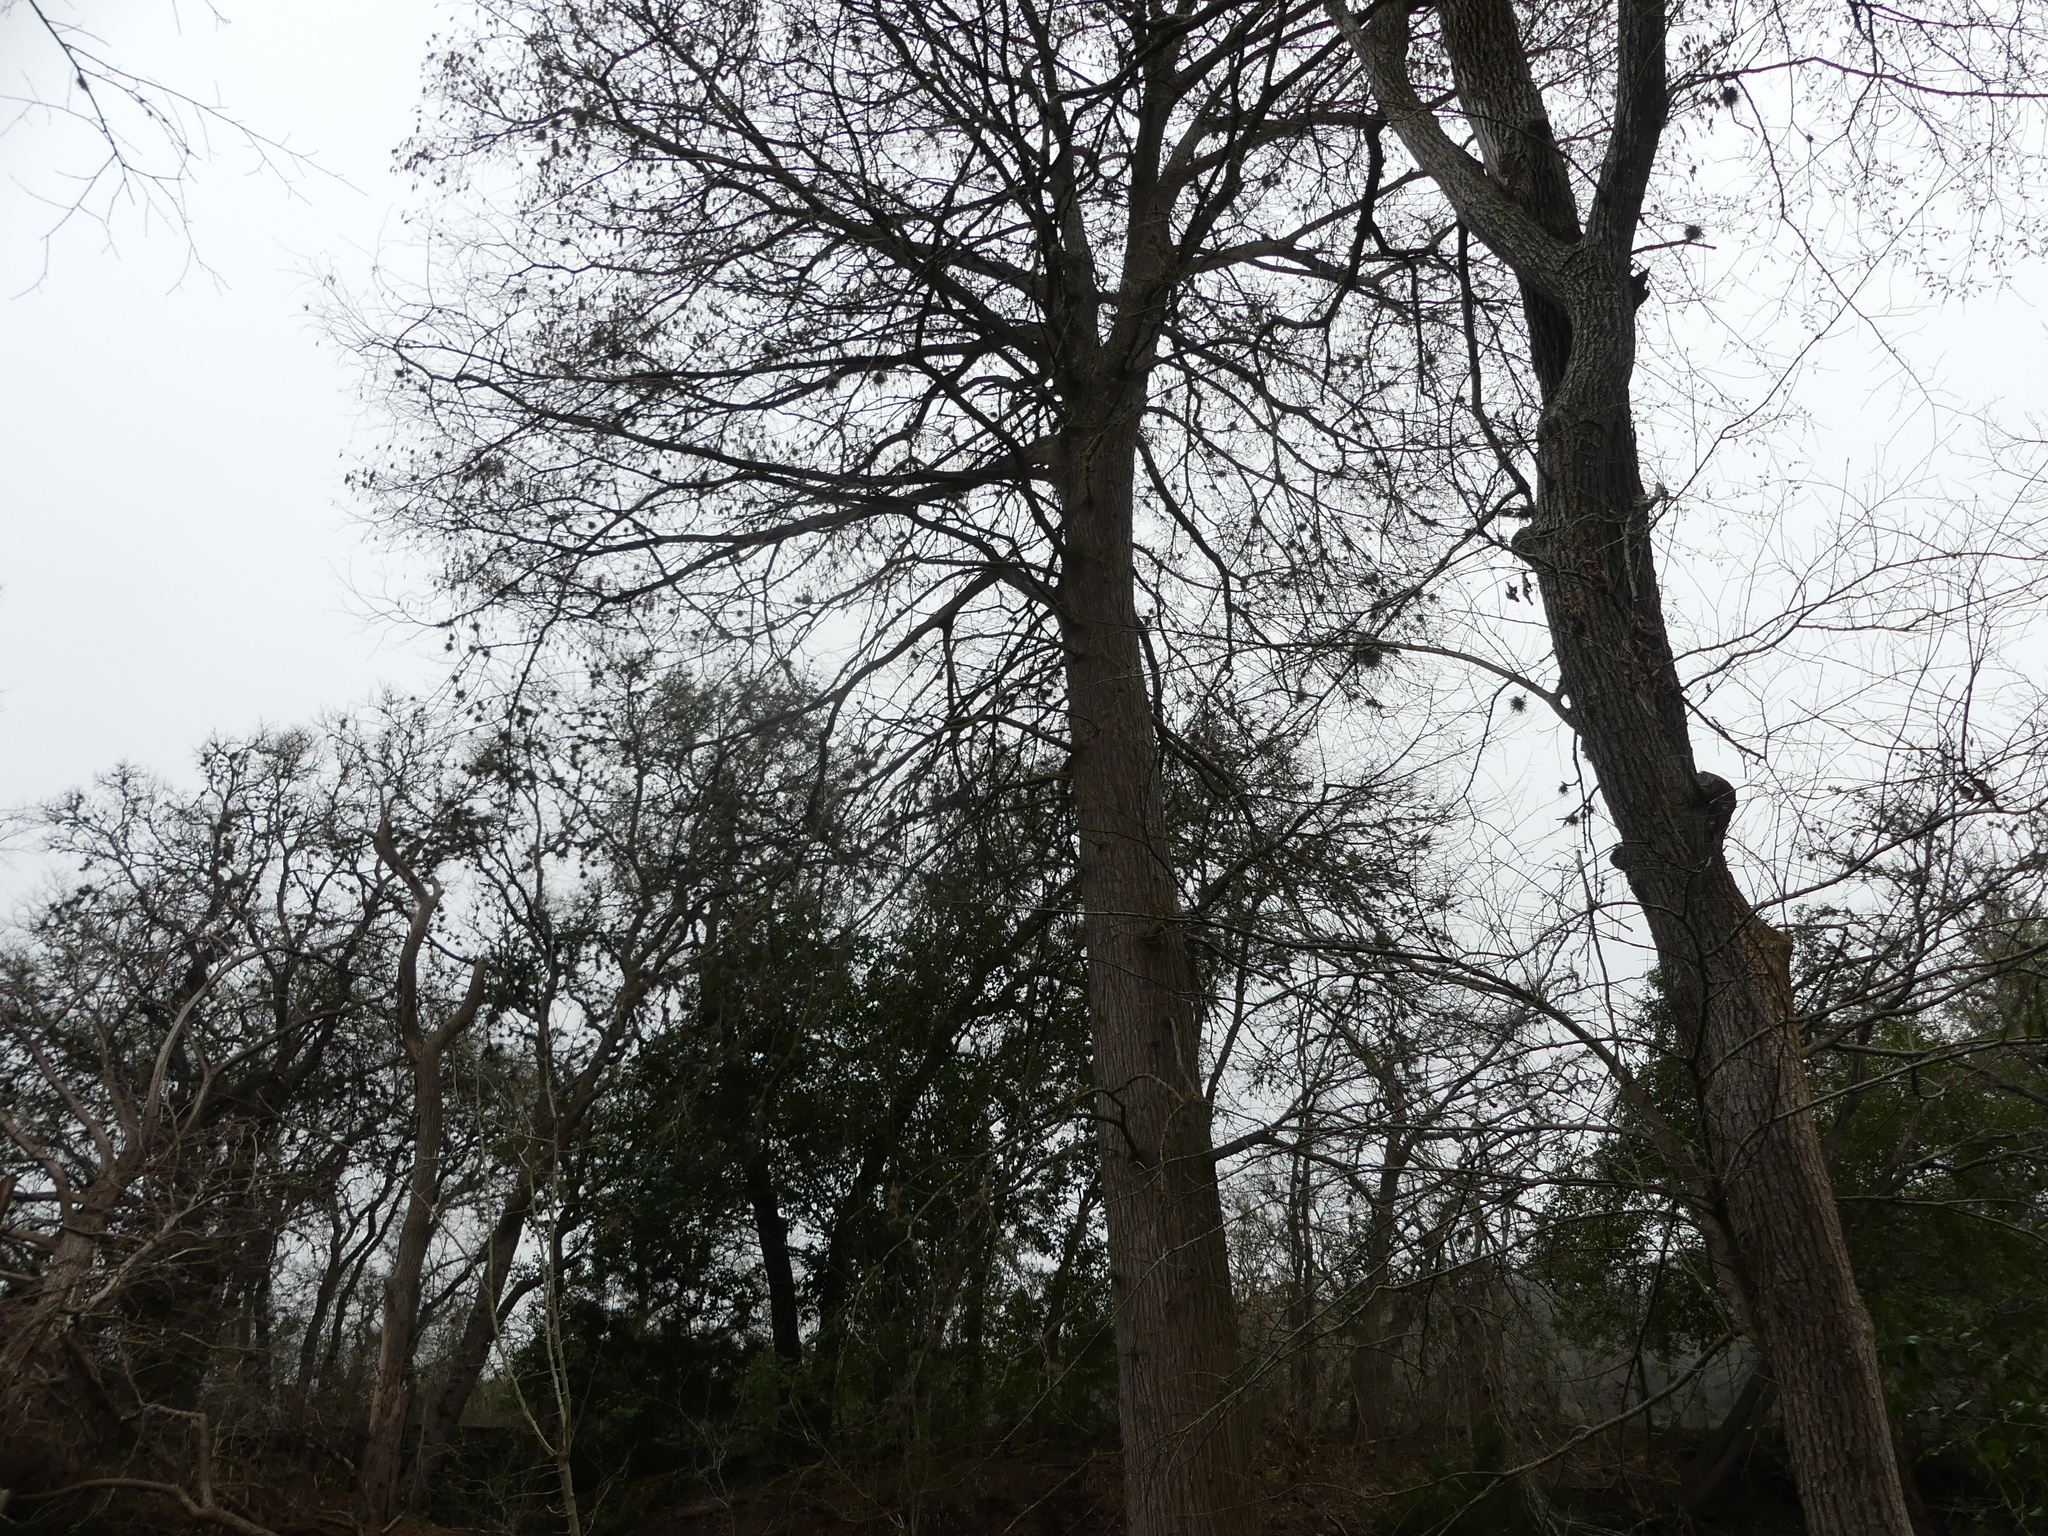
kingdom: Plantae
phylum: Tracheophyta
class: Pinopsida
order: Pinales
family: Cupressaceae
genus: Taxodium
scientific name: Taxodium distichum
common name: Bald cypress
